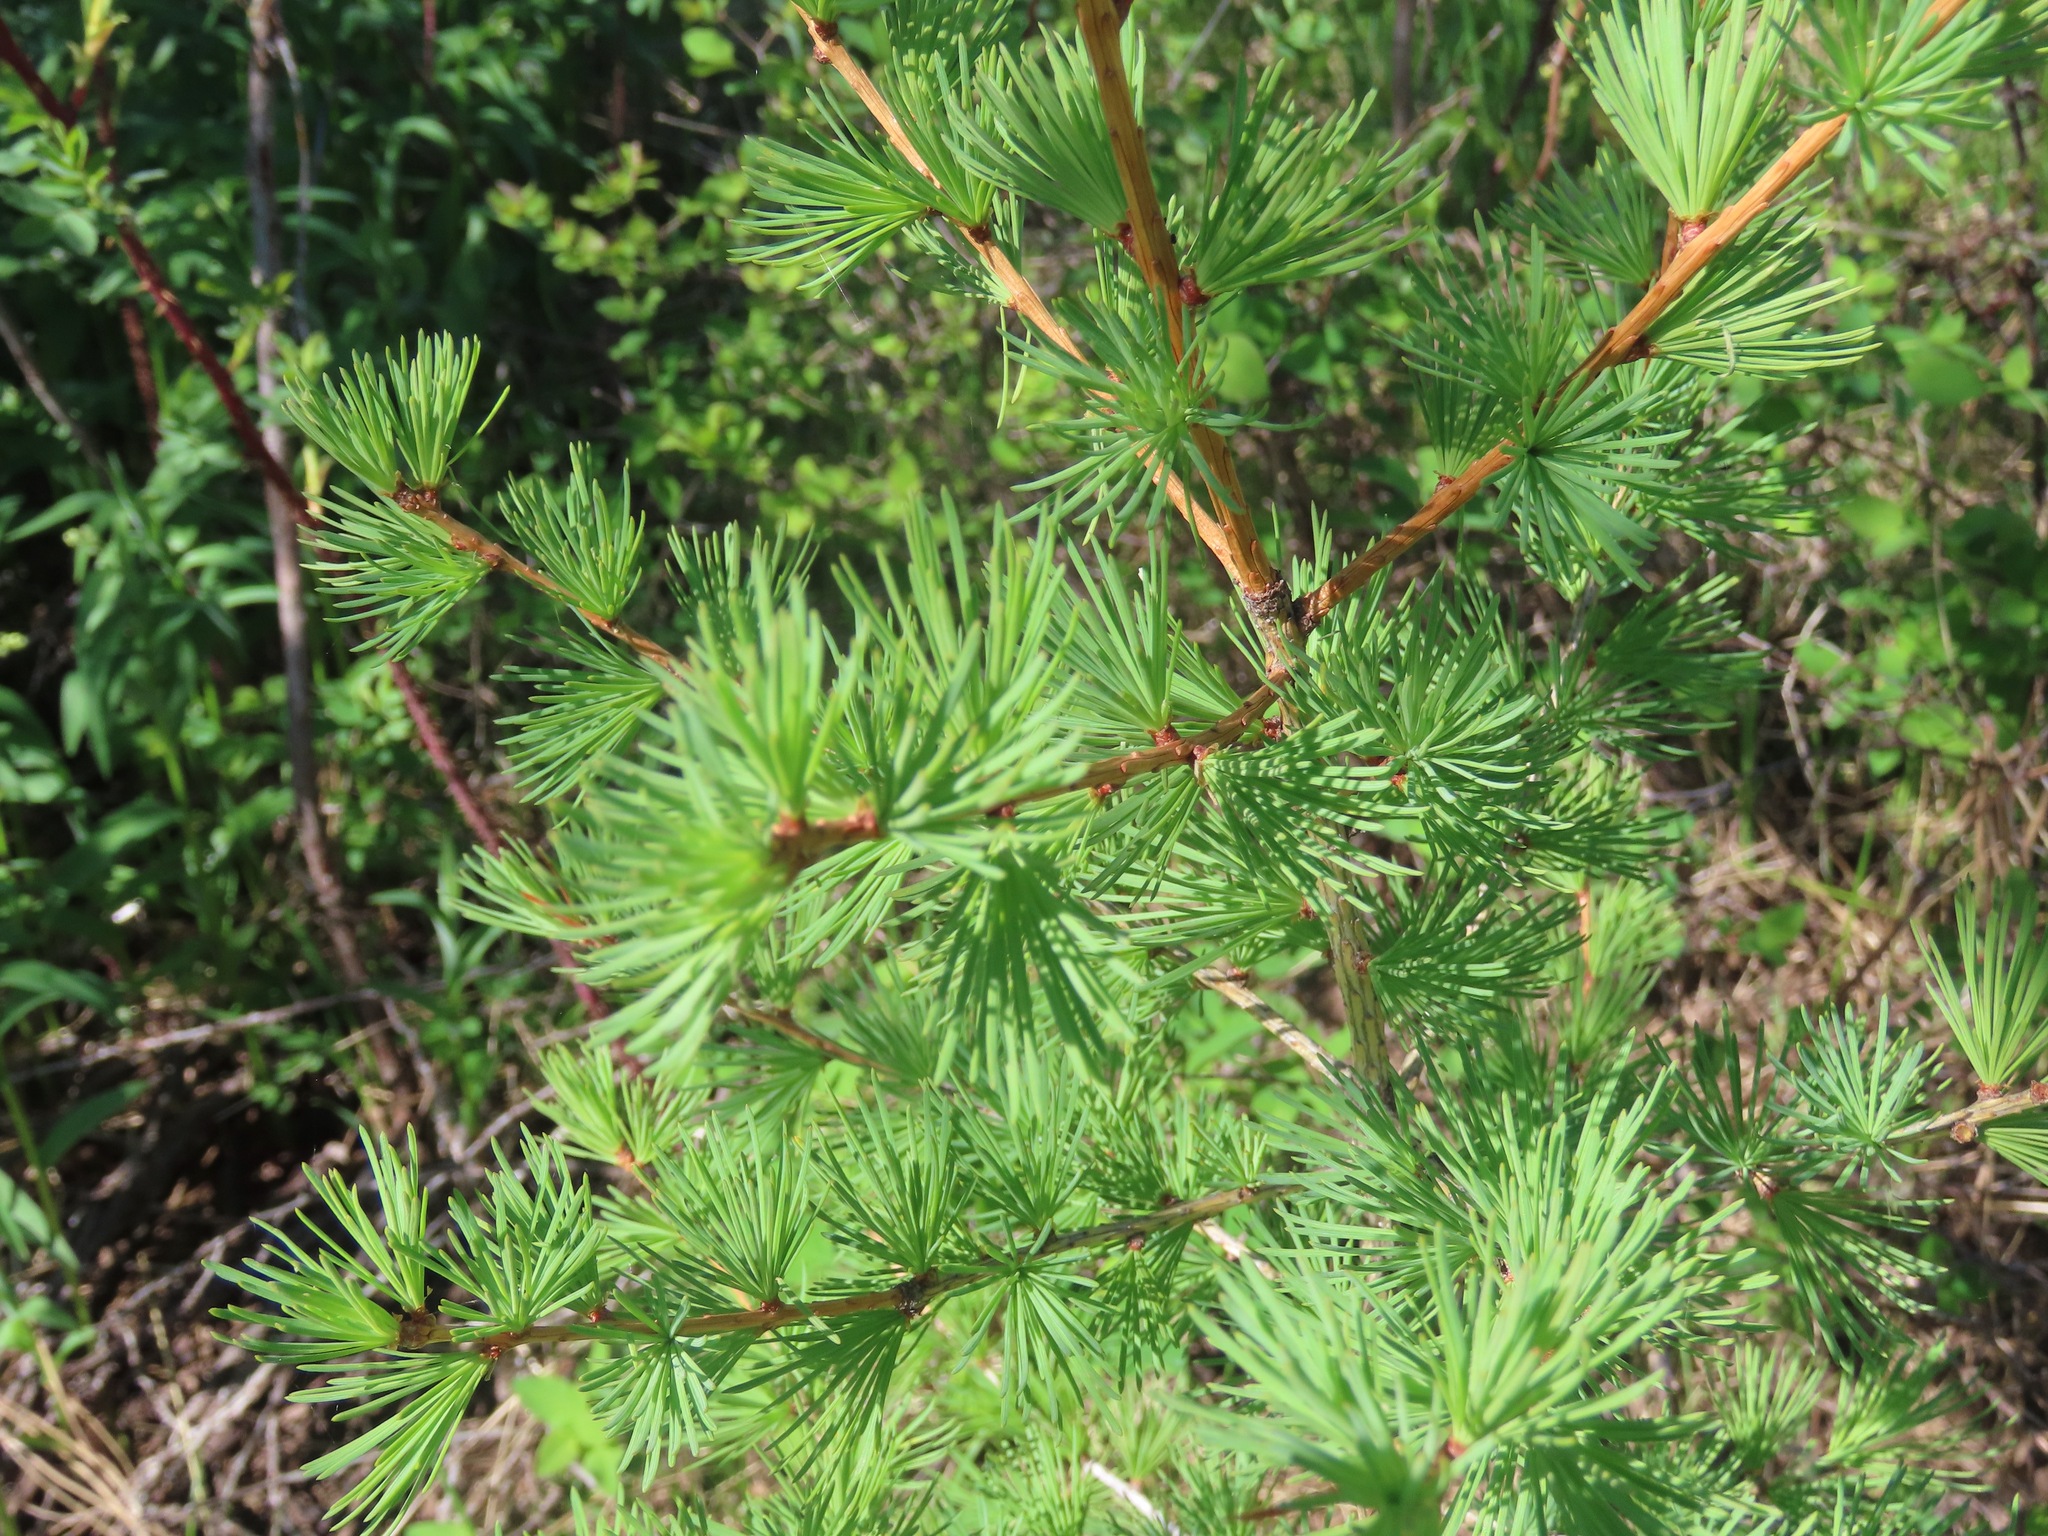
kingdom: Plantae
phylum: Tracheophyta
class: Pinopsida
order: Pinales
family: Pinaceae
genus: Larix
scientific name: Larix occidentalis
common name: Western larch
